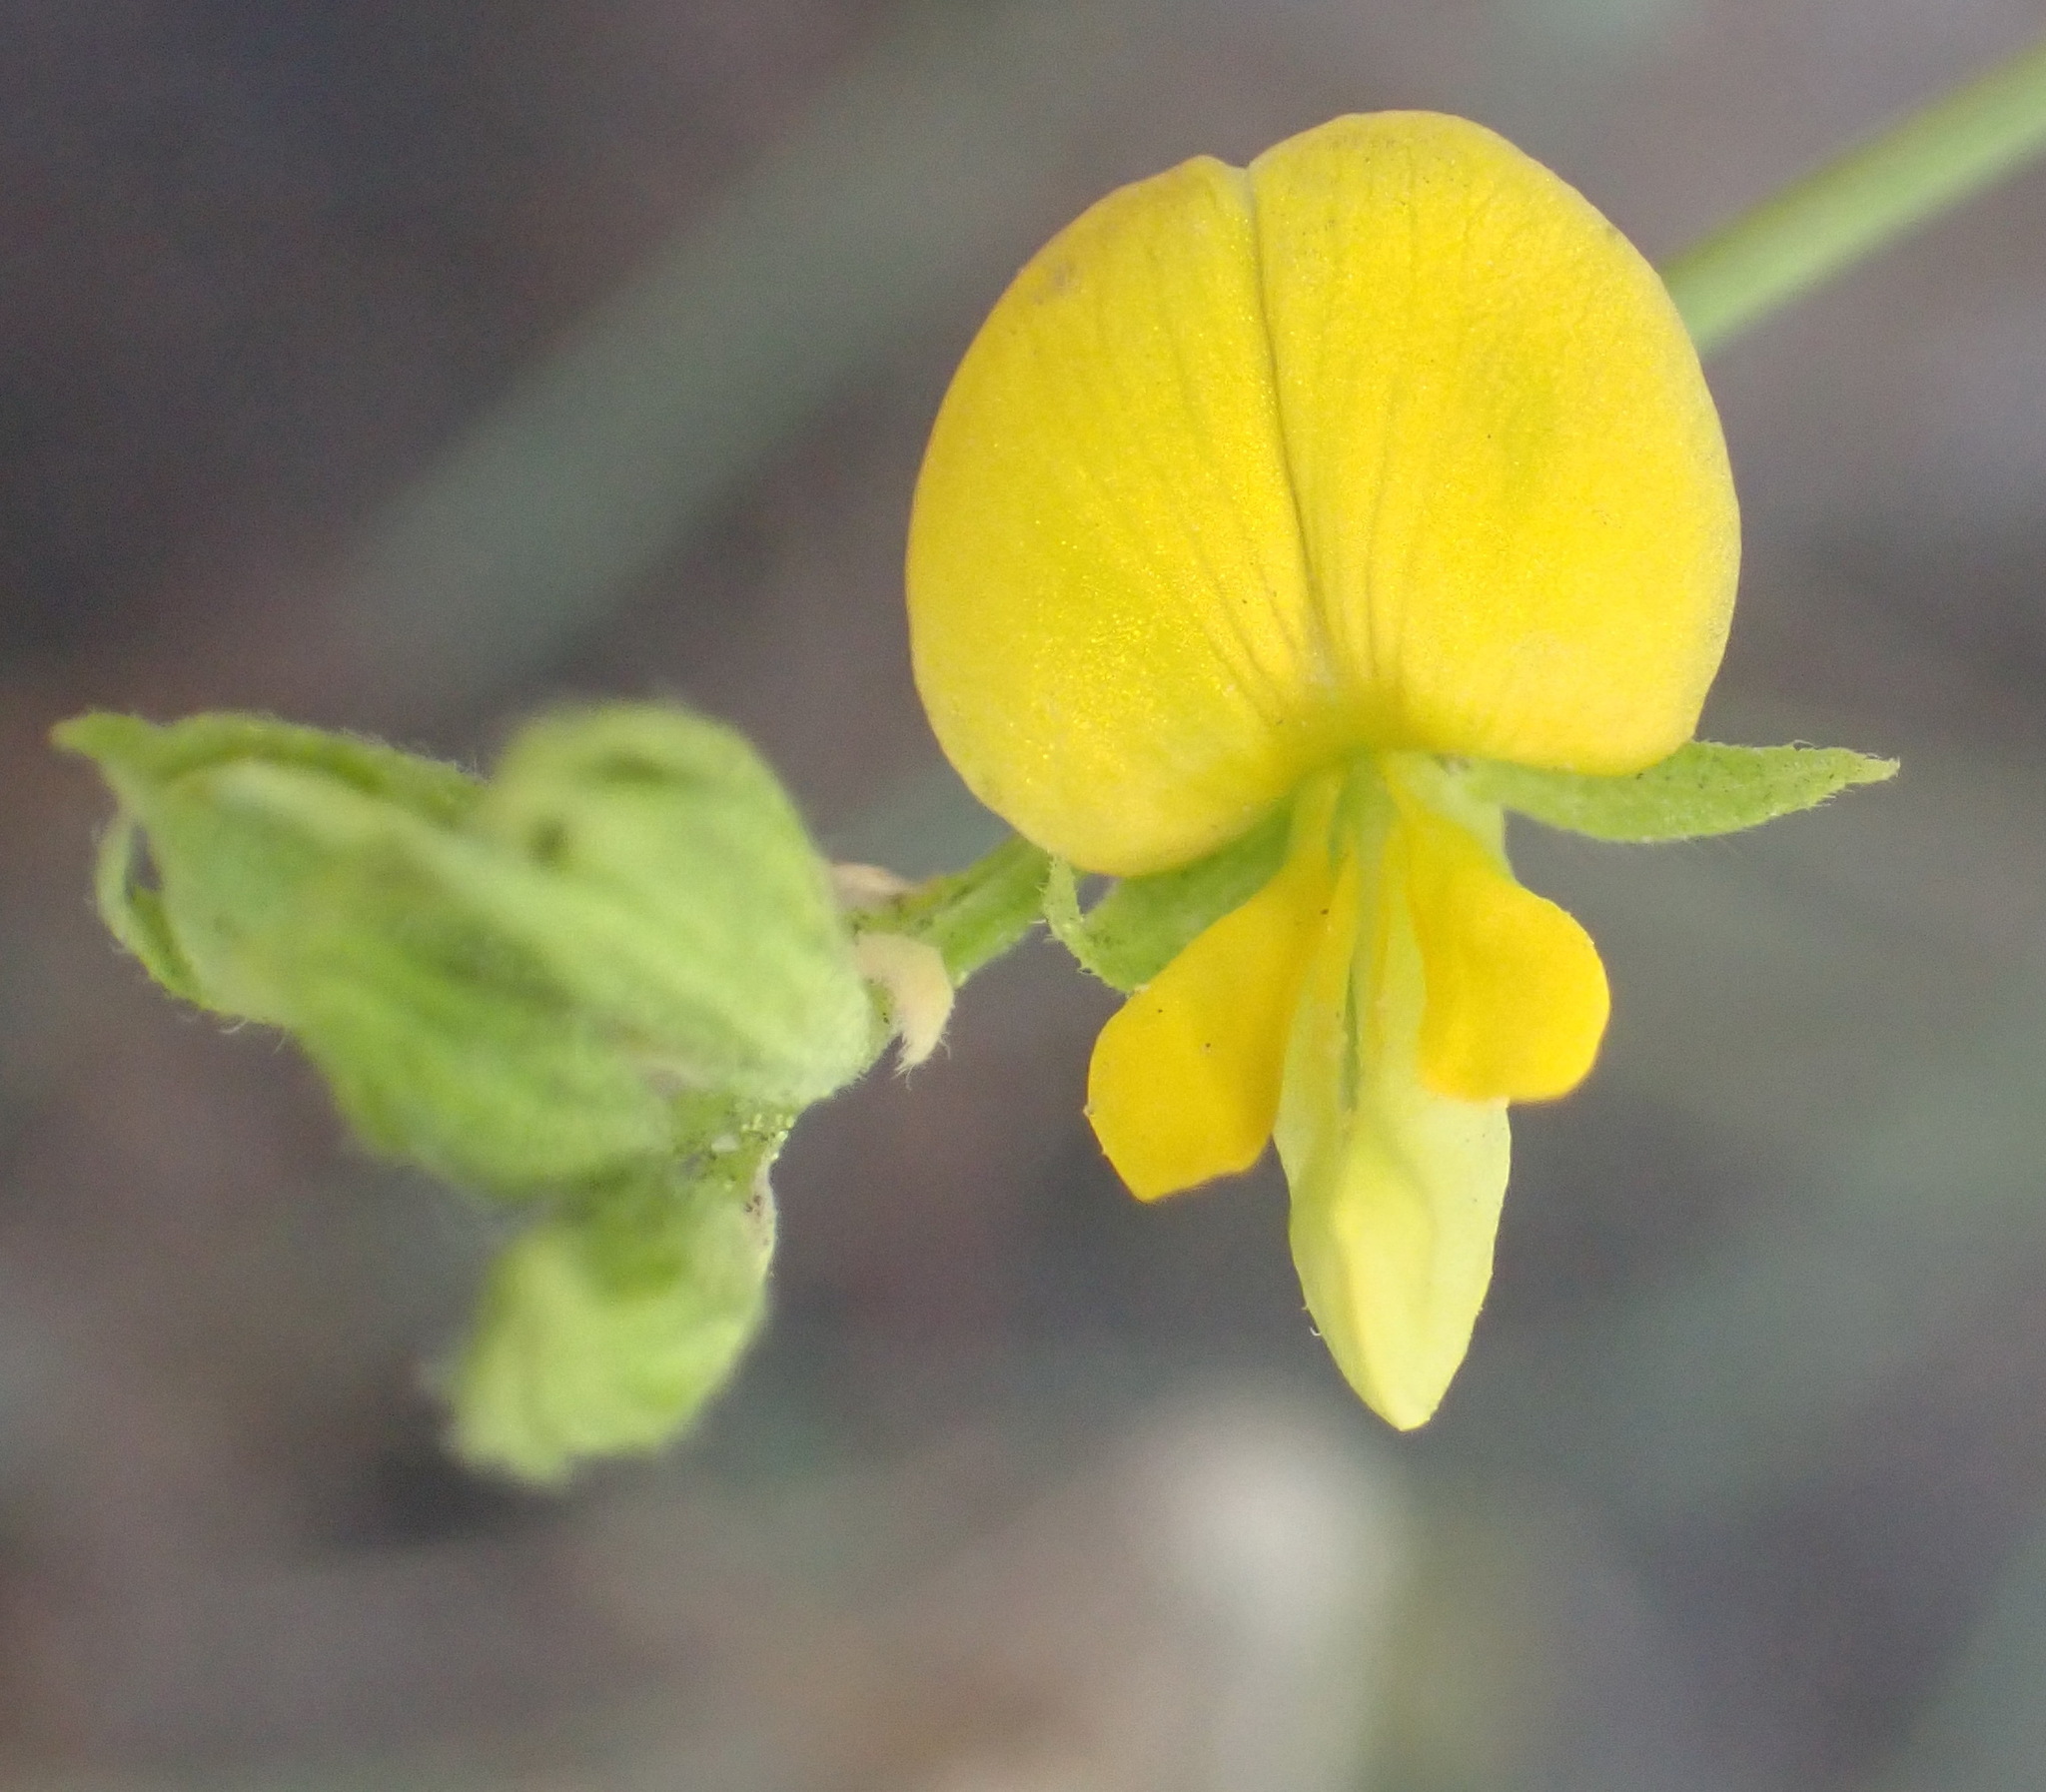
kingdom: Plantae
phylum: Tracheophyta
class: Magnoliopsida
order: Fabales
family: Fabaceae
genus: Rhynchosia
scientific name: Rhynchosia leucoscias
